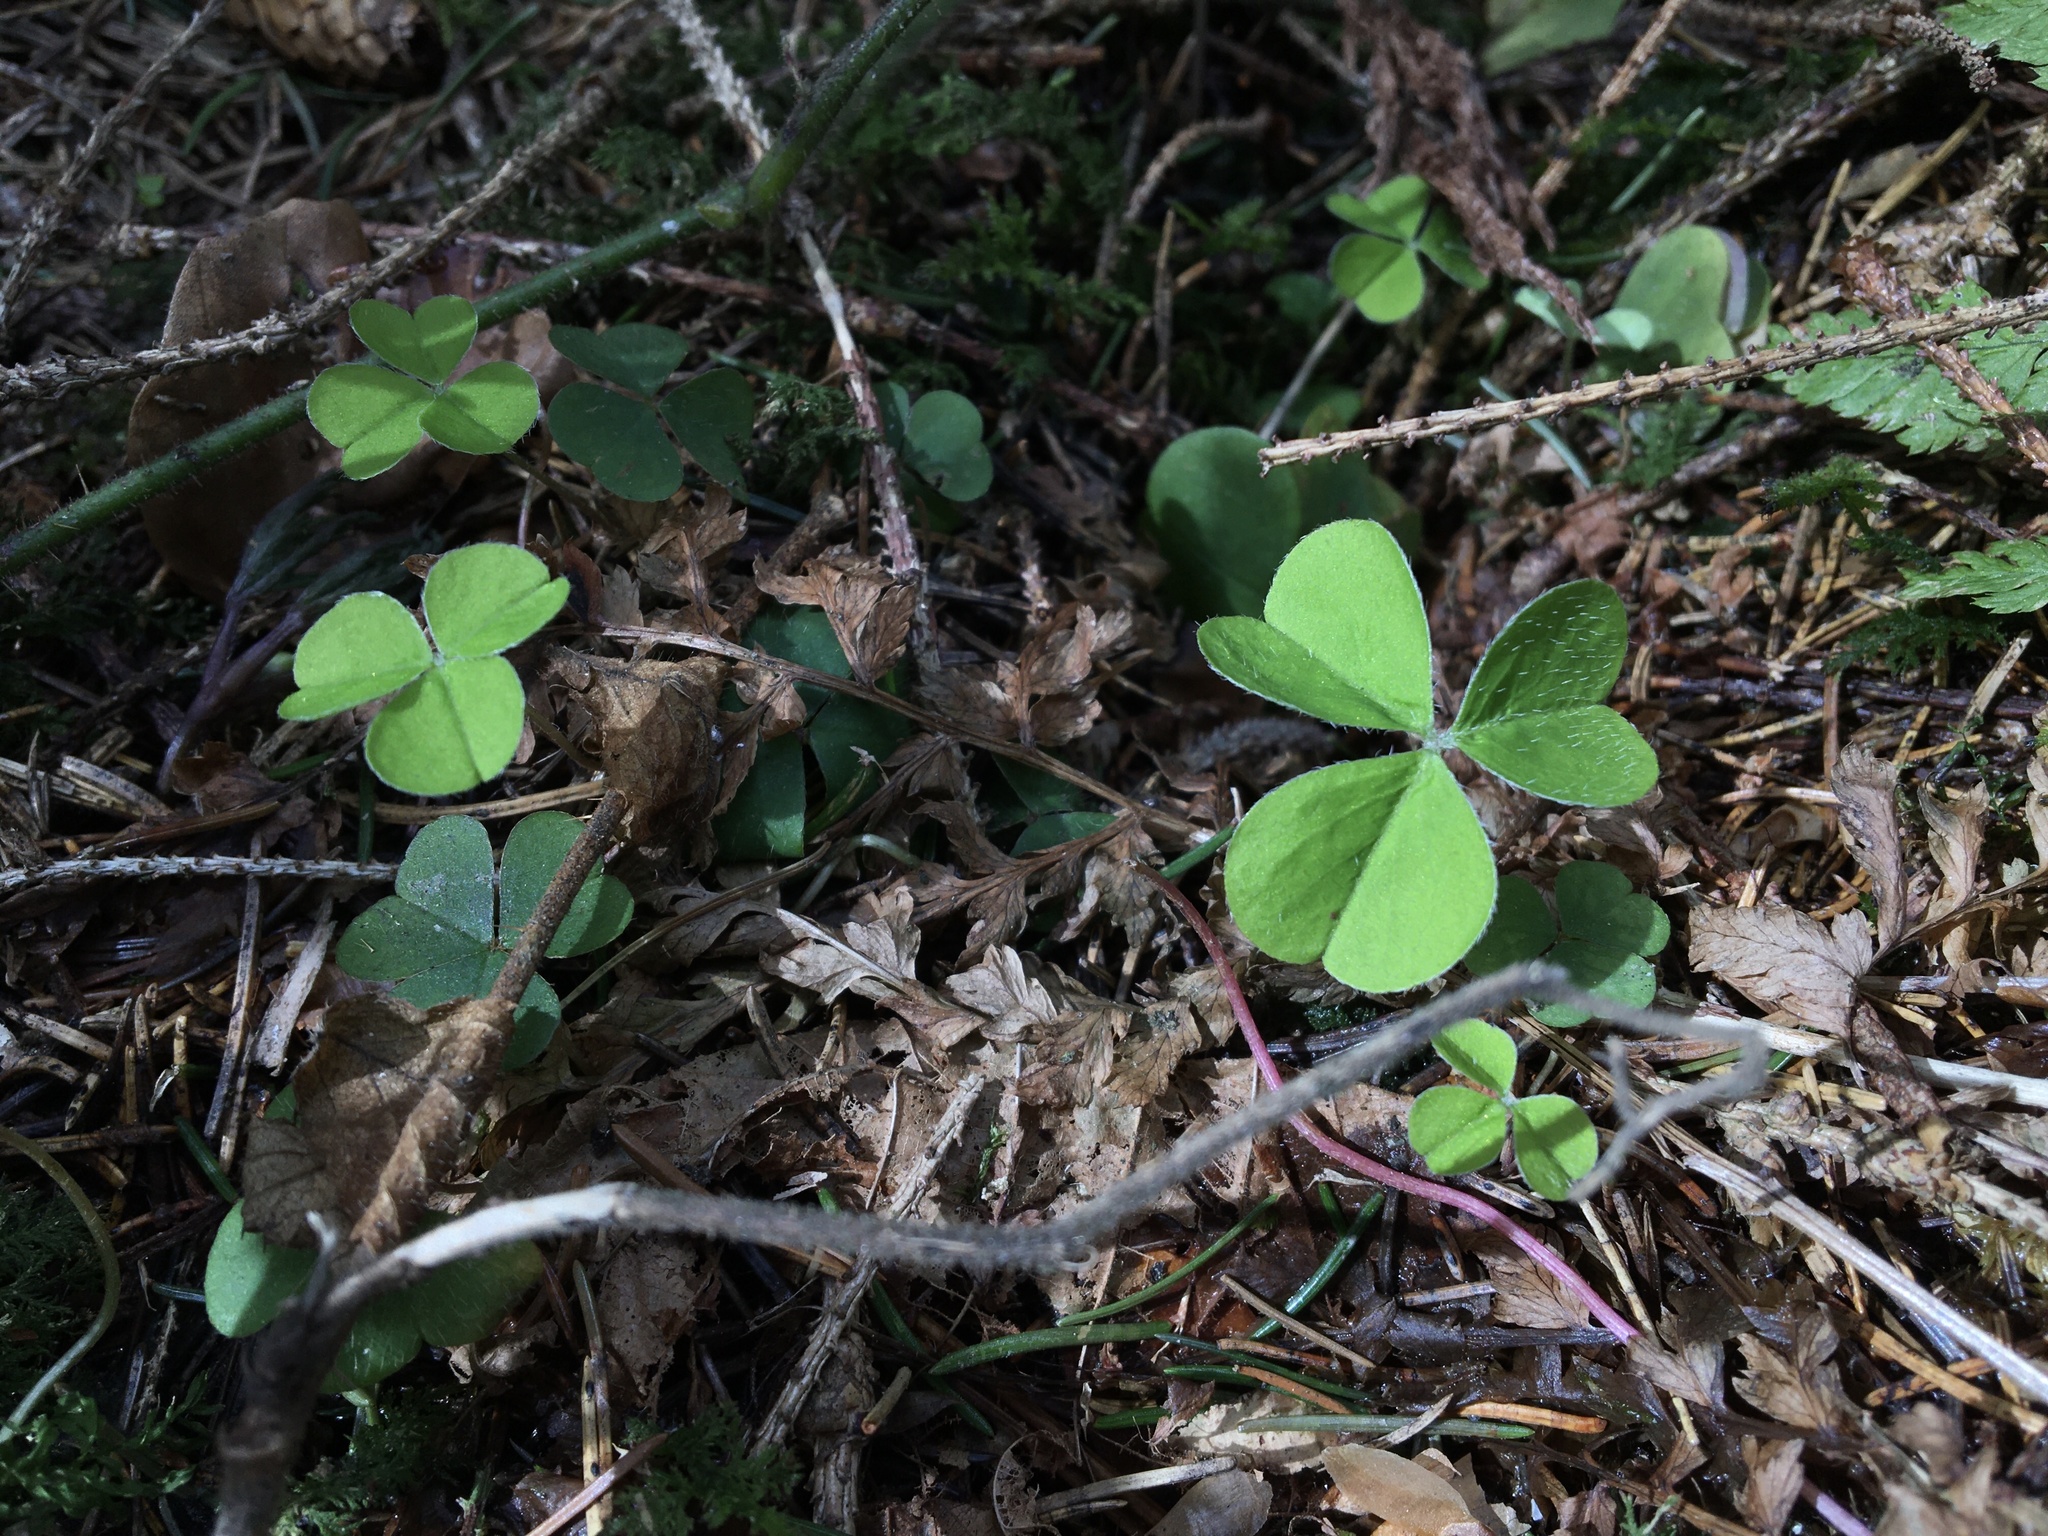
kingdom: Plantae
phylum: Tracheophyta
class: Magnoliopsida
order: Oxalidales
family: Oxalidaceae
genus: Oxalis
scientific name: Oxalis acetosella
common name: Wood-sorrel
